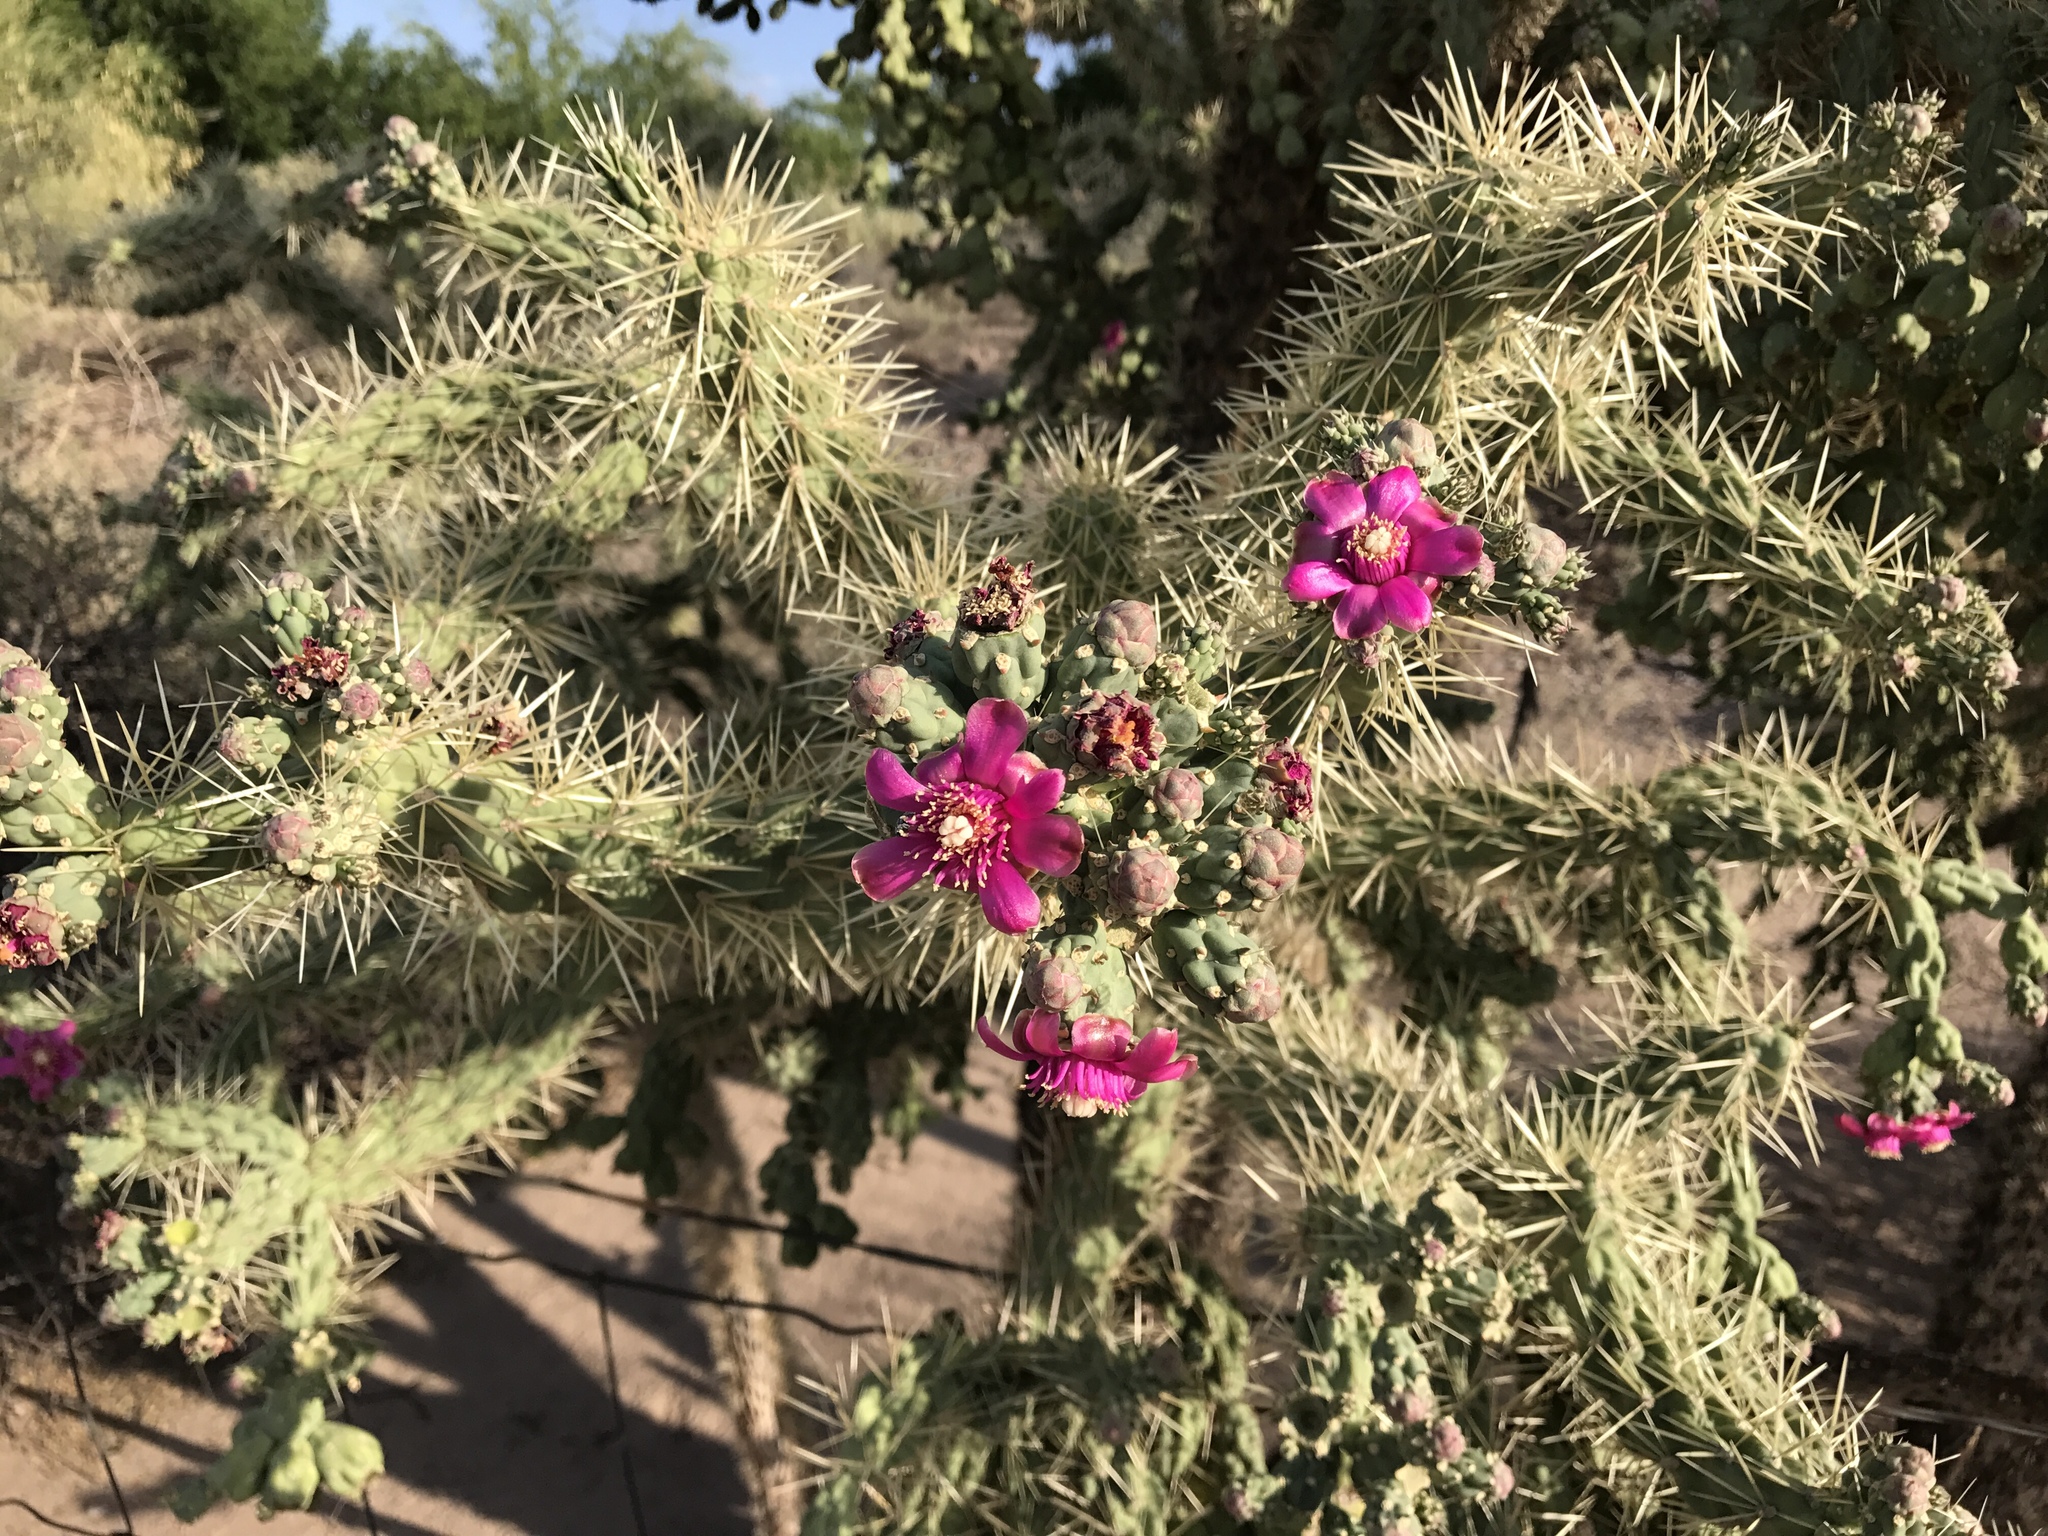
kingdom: Plantae
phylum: Tracheophyta
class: Magnoliopsida
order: Caryophyllales
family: Cactaceae
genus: Cylindropuntia
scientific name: Cylindropuntia fulgida
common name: Jumping cholla
